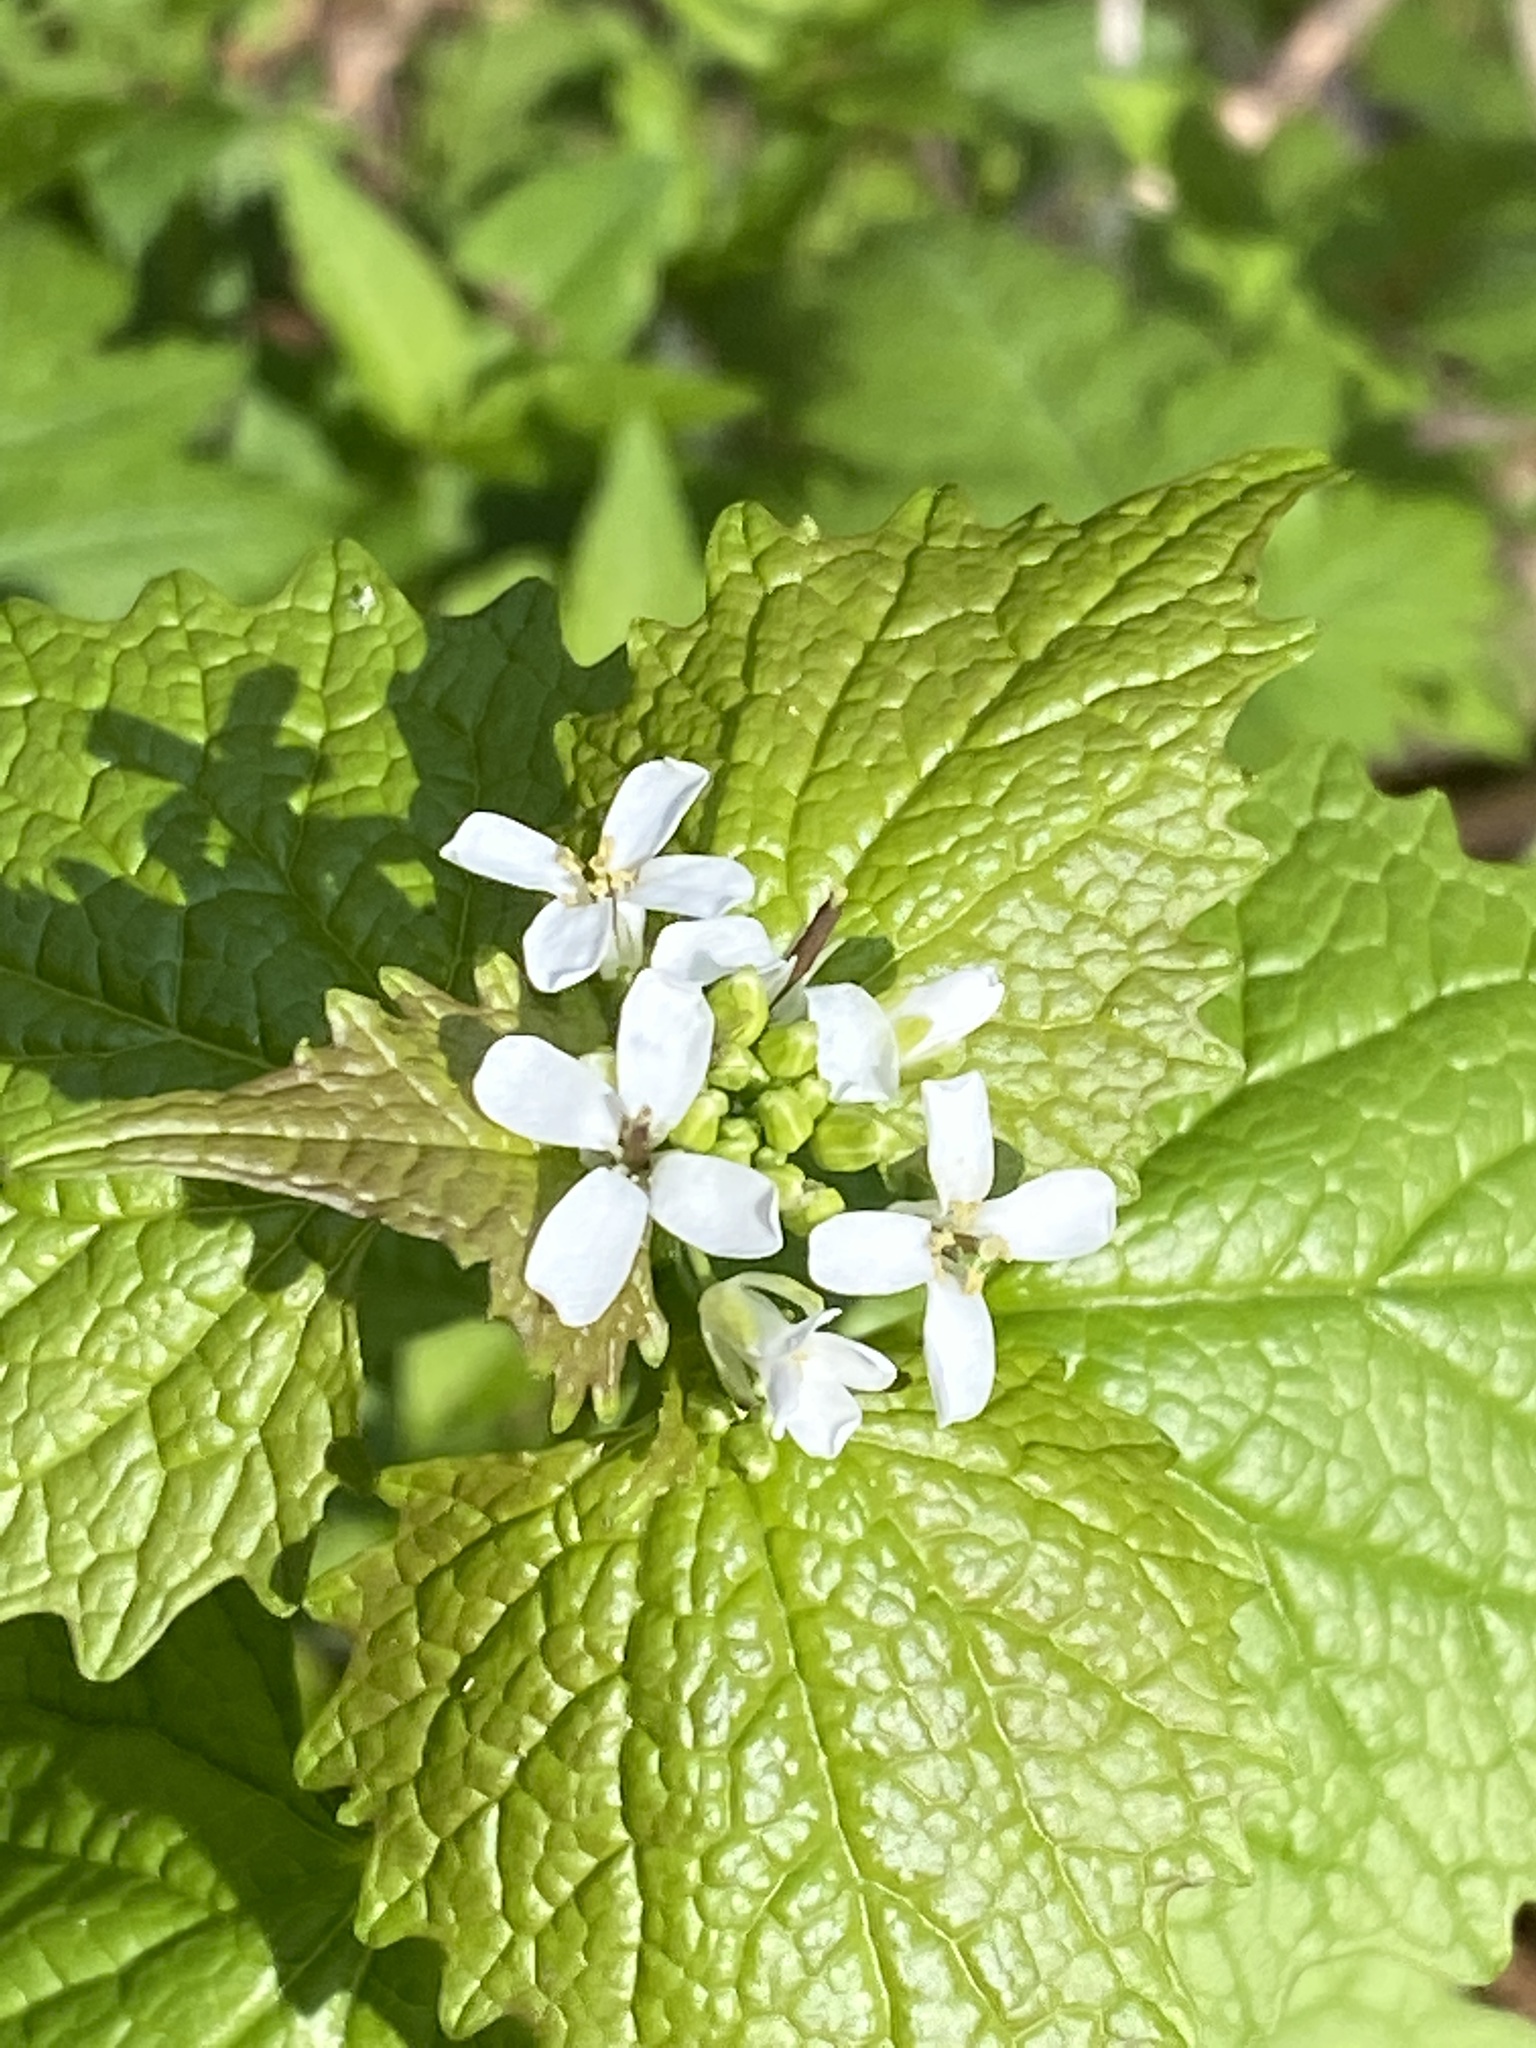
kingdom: Plantae
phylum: Tracheophyta
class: Magnoliopsida
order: Brassicales
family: Brassicaceae
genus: Alliaria
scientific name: Alliaria petiolata
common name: Garlic mustard
